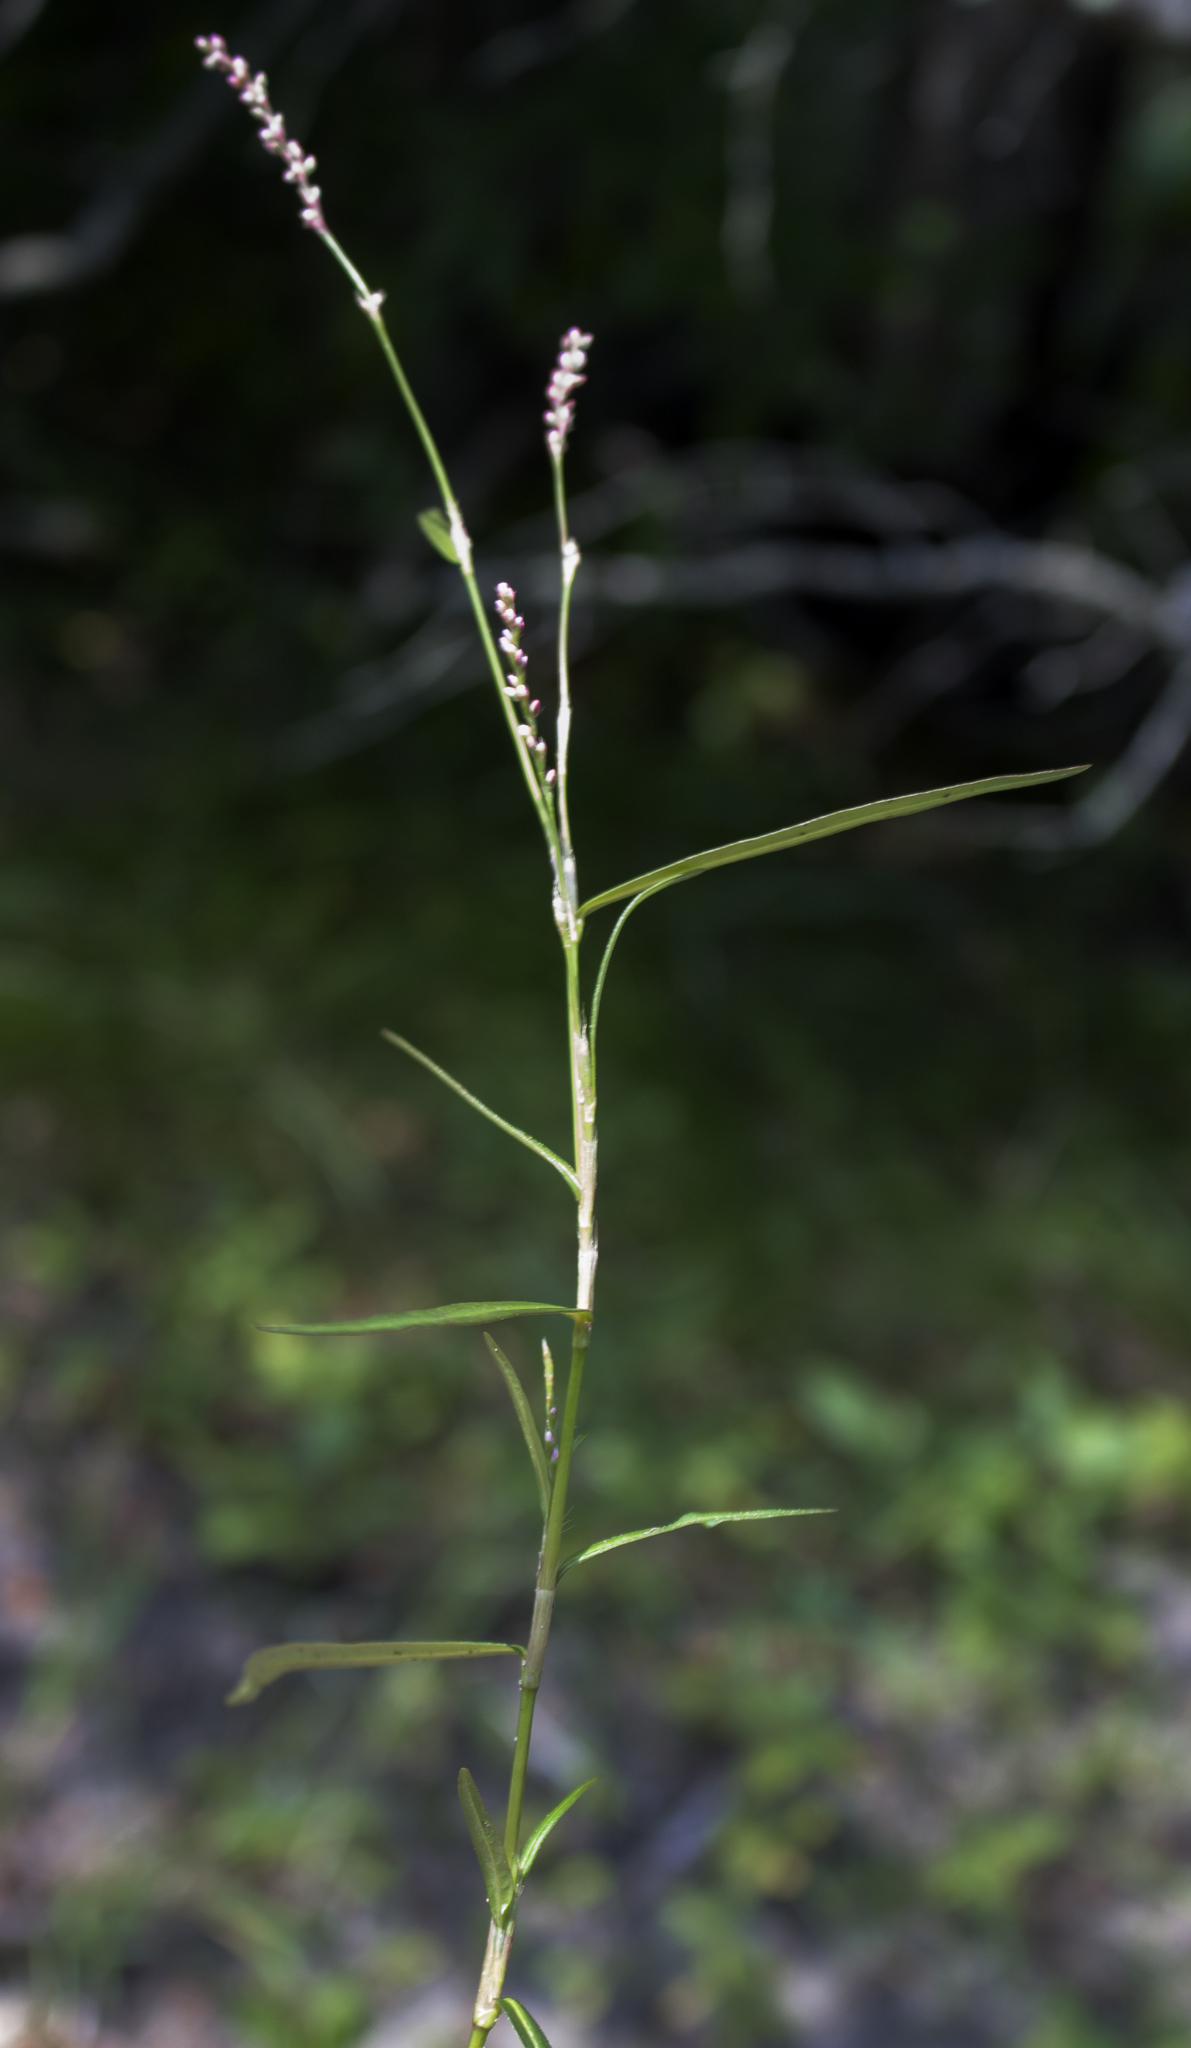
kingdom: Plantae
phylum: Tracheophyta
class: Magnoliopsida
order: Caryophyllales
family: Polygonaceae
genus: Persicaria
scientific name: Persicaria longiseta
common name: Bristly lady's-thumb
